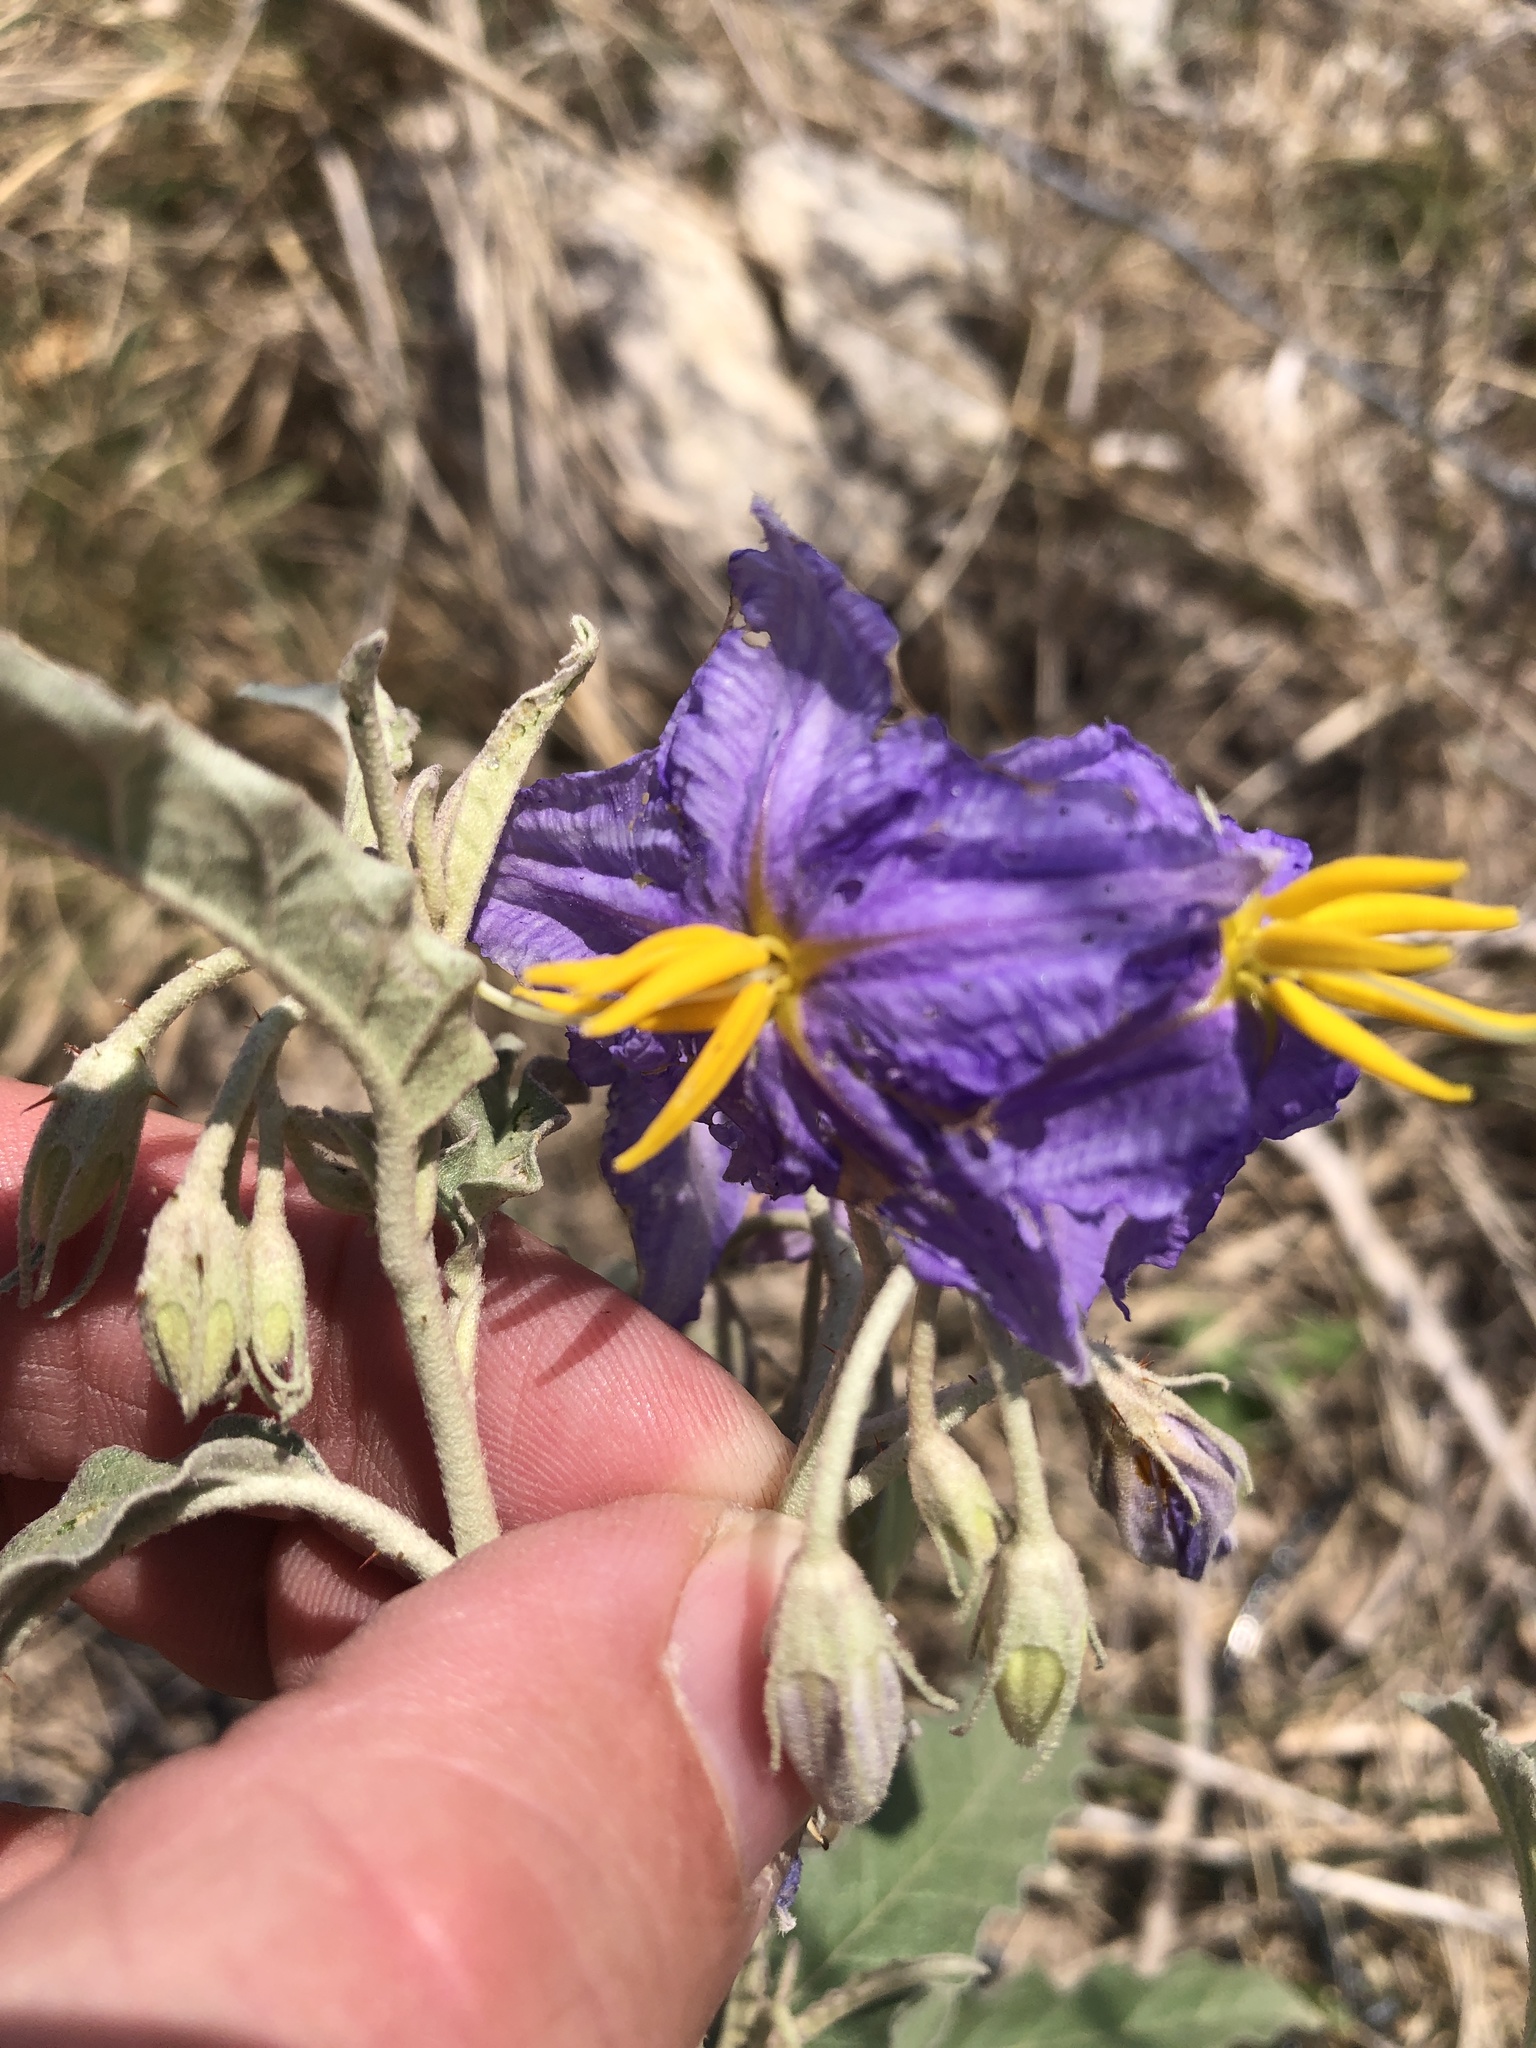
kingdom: Plantae
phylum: Tracheophyta
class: Magnoliopsida
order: Solanales
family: Solanaceae
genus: Solanum
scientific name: Solanum elaeagnifolium
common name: Silverleaf nightshade
